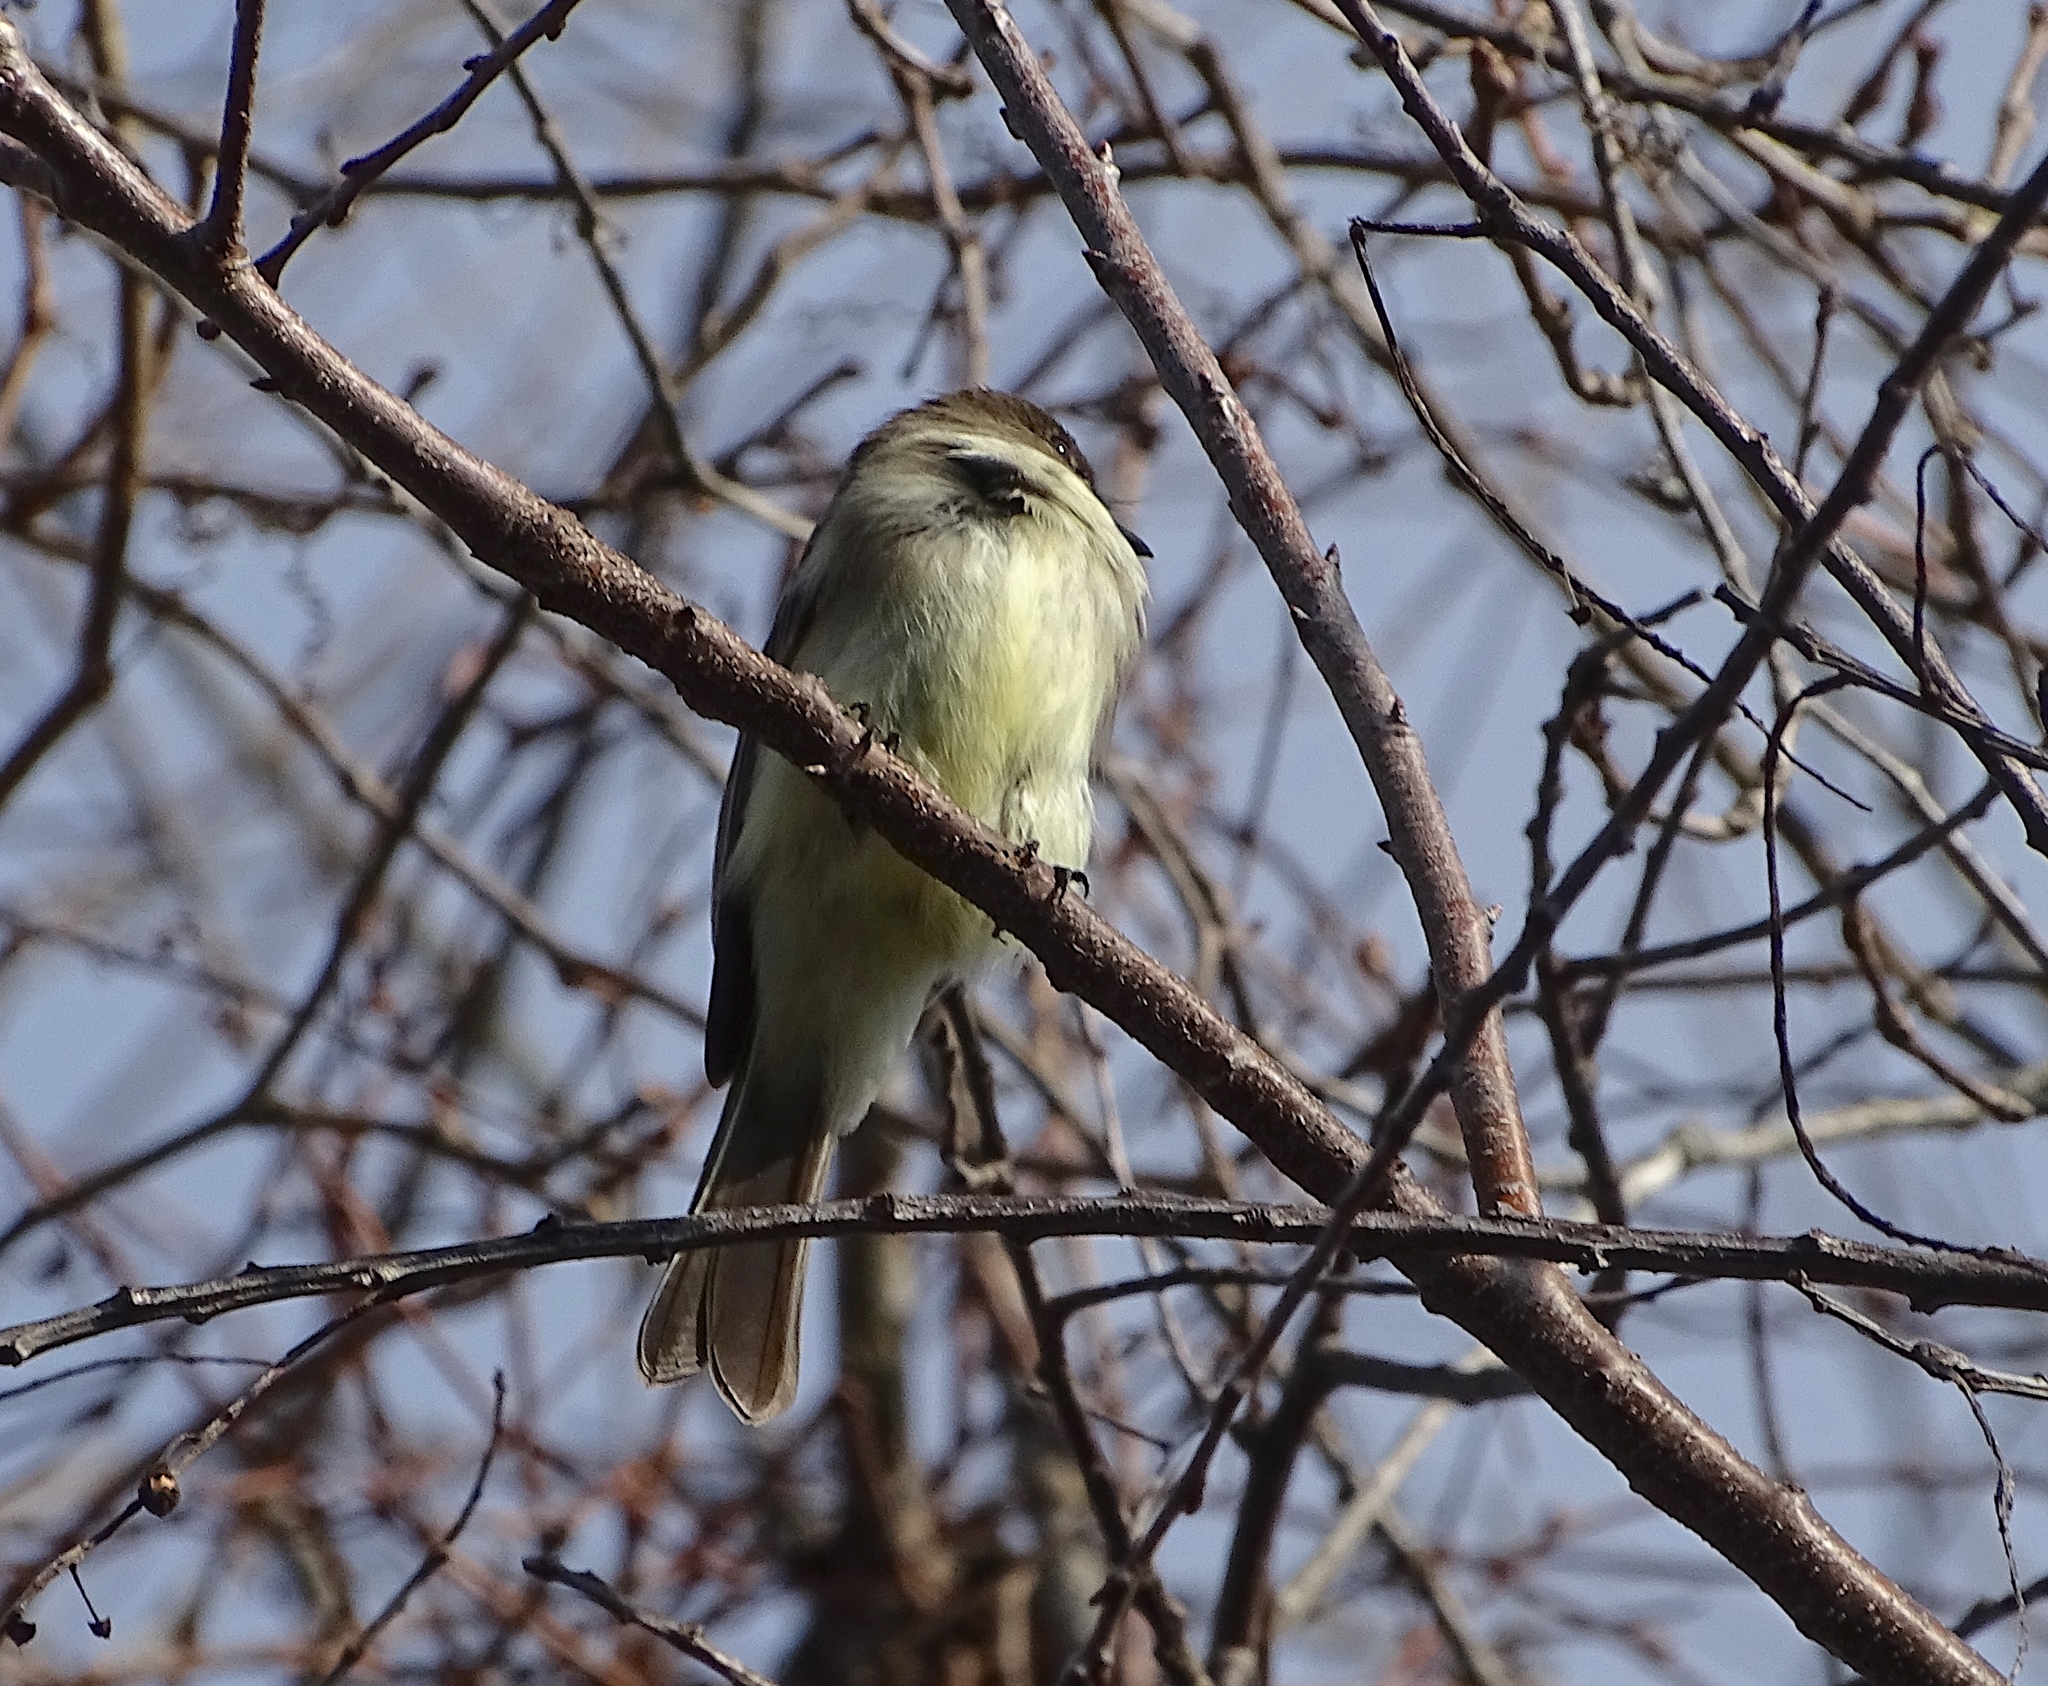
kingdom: Animalia
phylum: Chordata
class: Aves
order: Passeriformes
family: Tyrannidae
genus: Sayornis
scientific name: Sayornis phoebe
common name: Eastern phoebe
